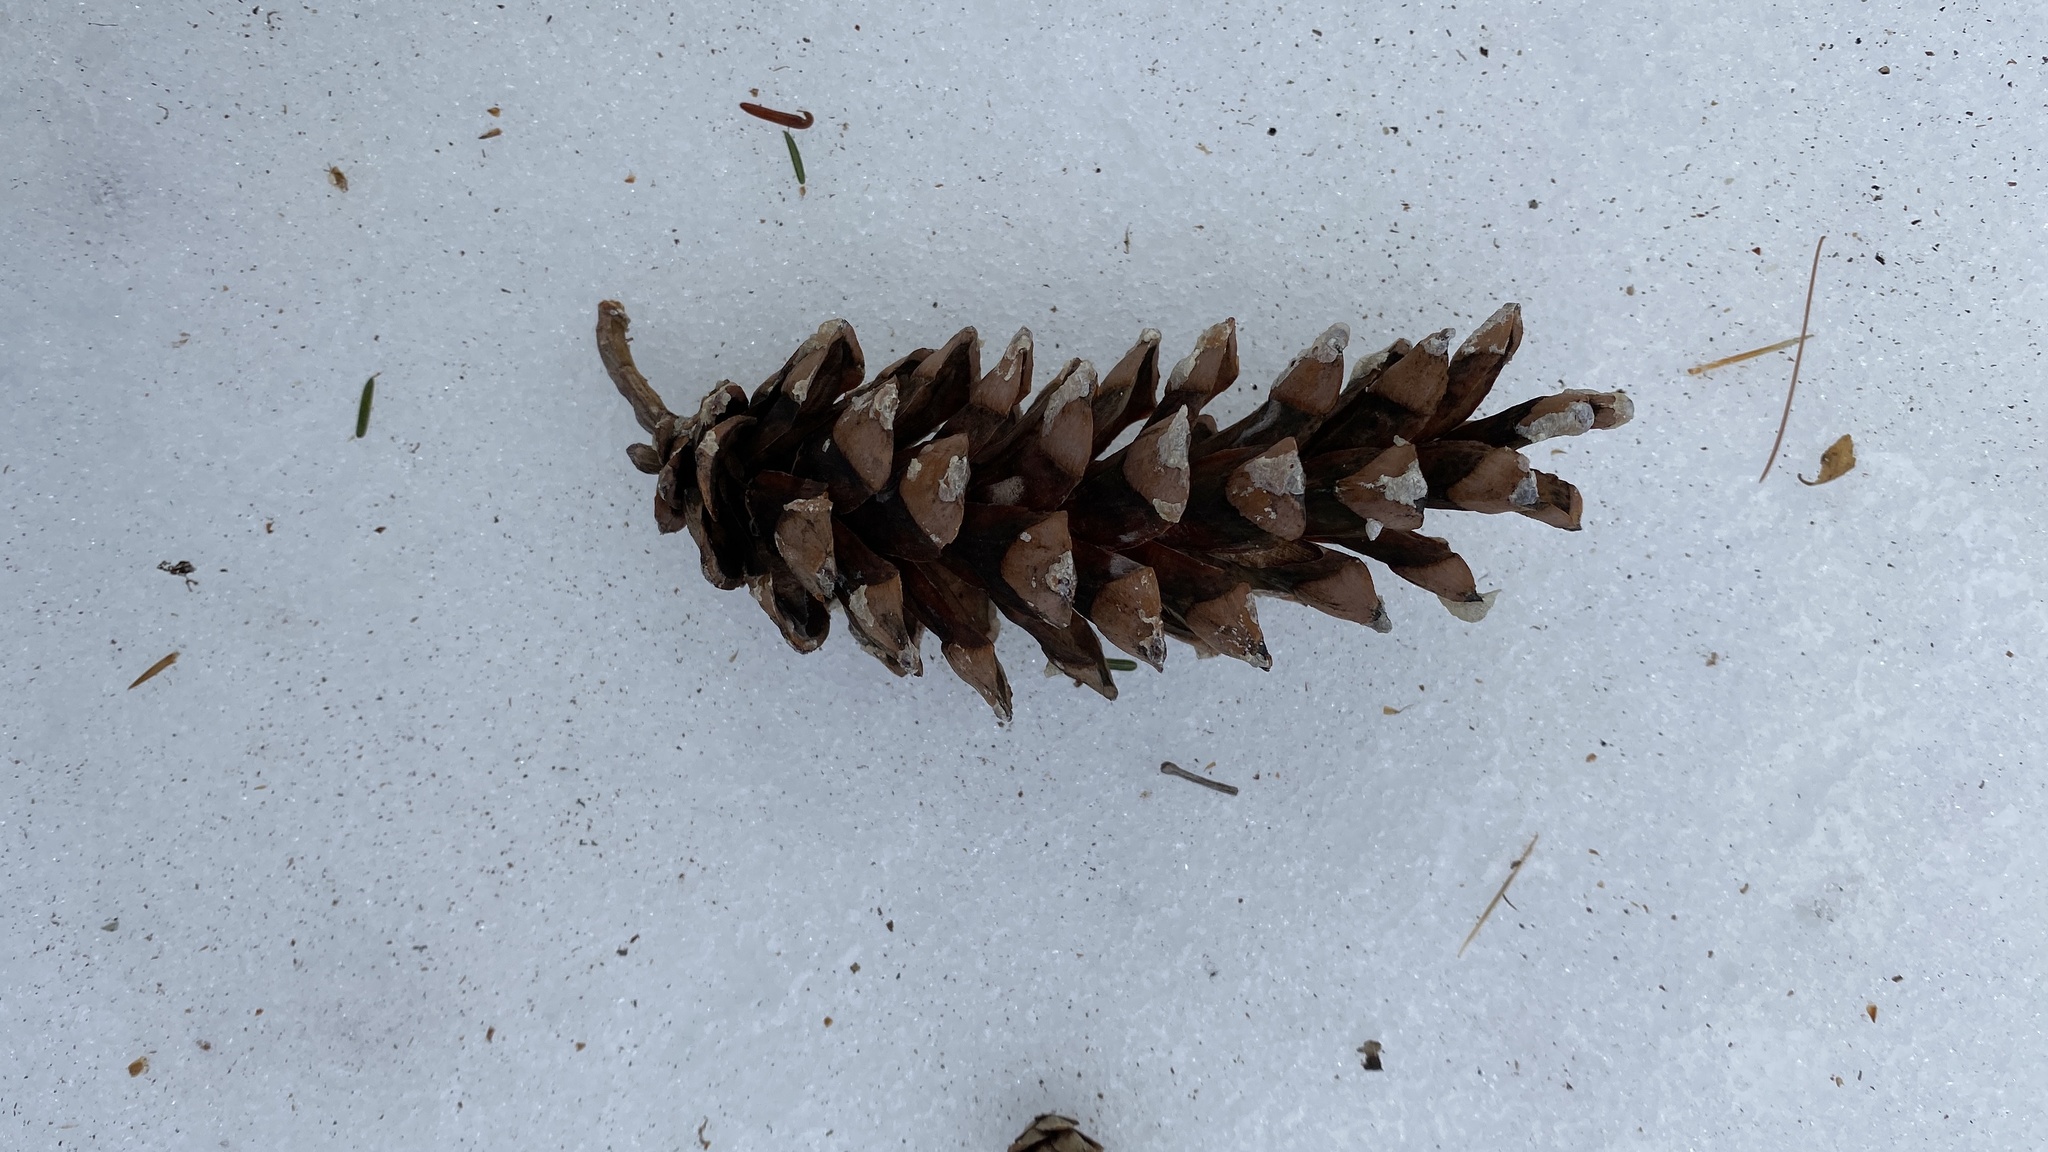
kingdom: Plantae
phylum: Tracheophyta
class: Pinopsida
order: Pinales
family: Pinaceae
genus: Pinus
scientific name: Pinus strobus
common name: Weymouth pine
